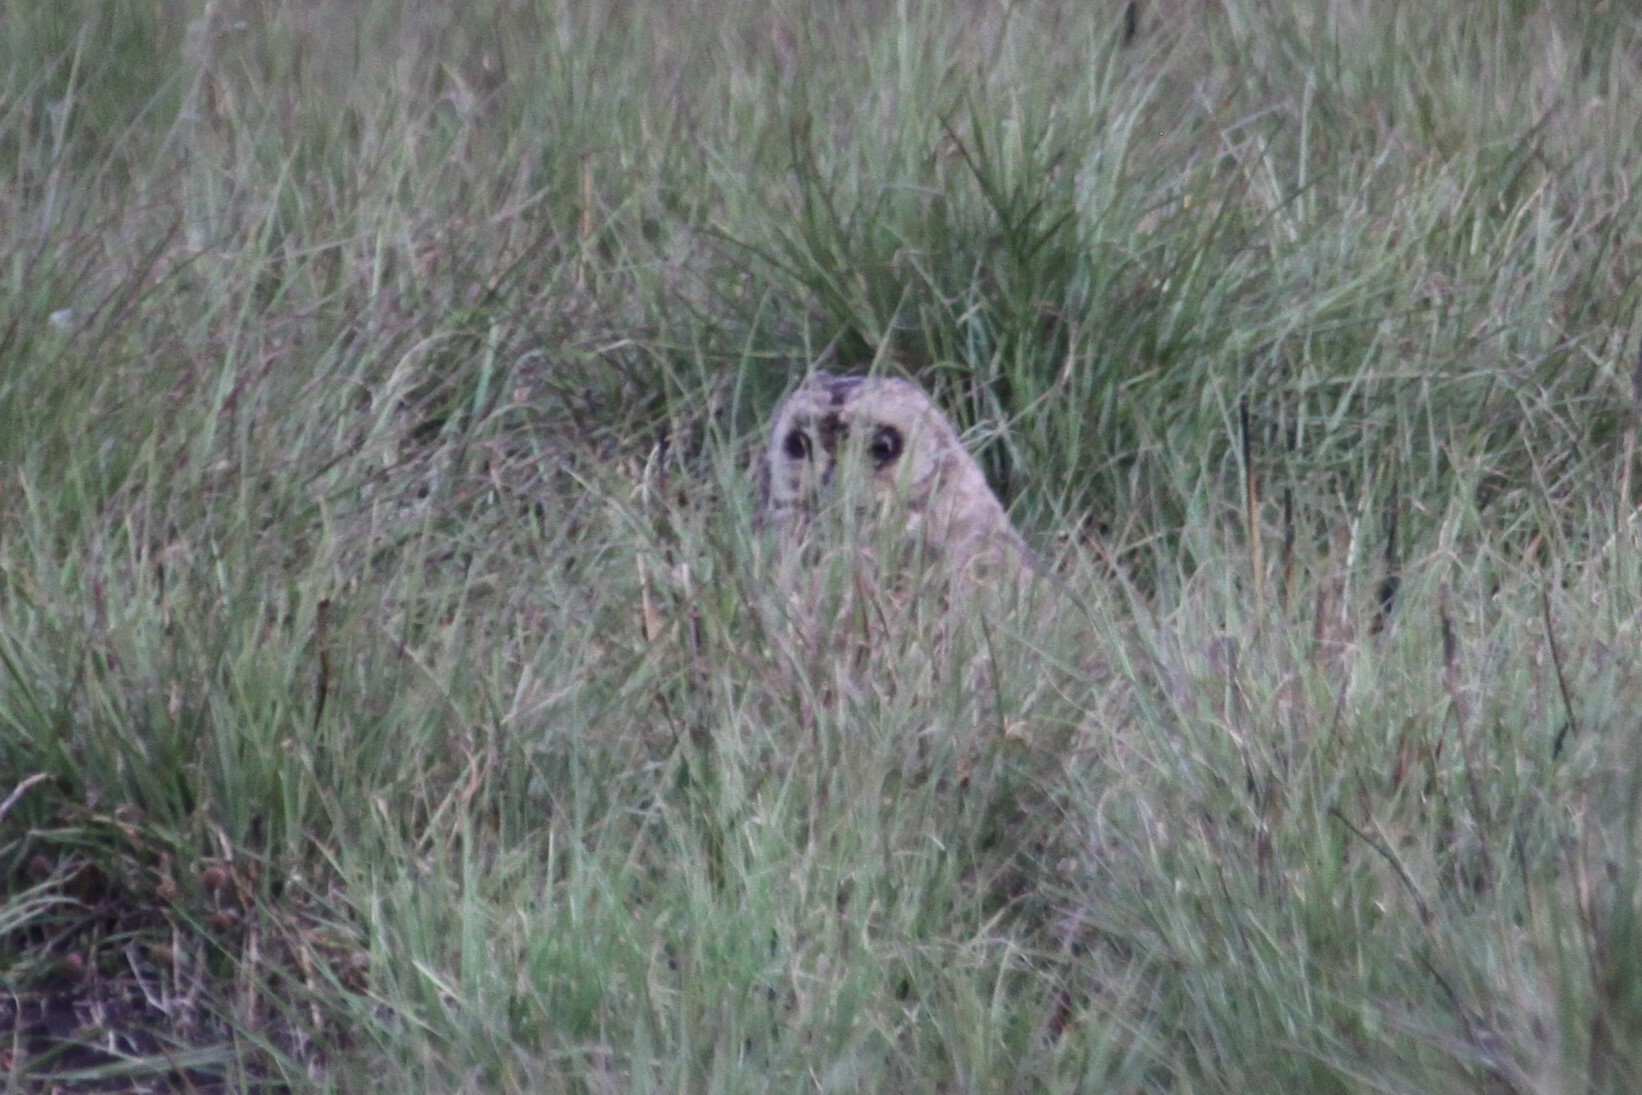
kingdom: Animalia
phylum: Chordata
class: Aves
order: Strigiformes
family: Strigidae
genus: Asio
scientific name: Asio capensis
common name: Marsh owl
